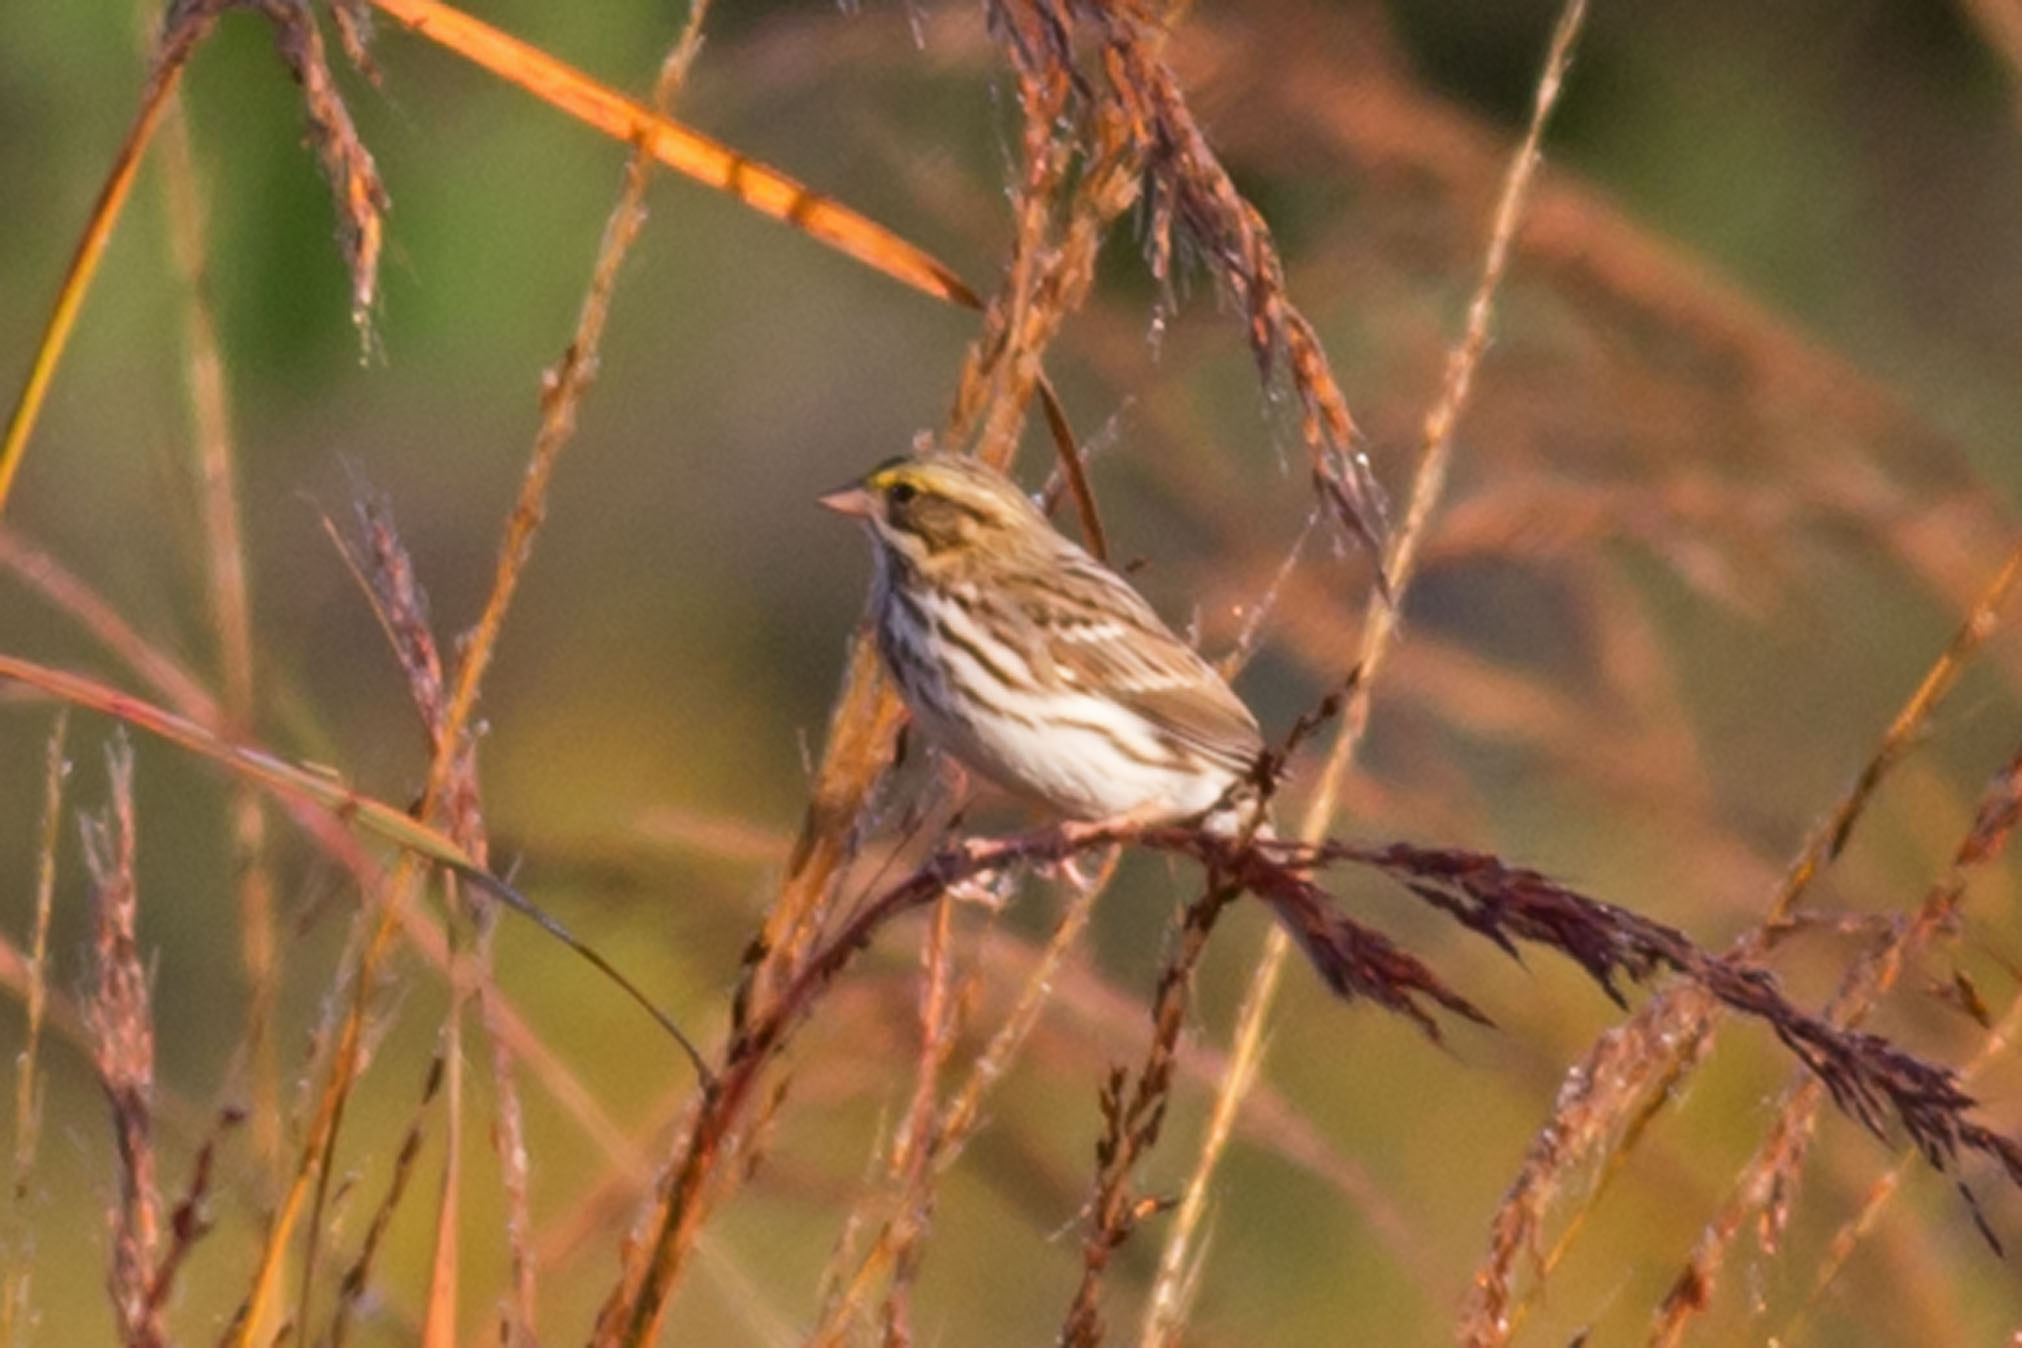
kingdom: Animalia
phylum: Chordata
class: Aves
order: Passeriformes
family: Passerellidae
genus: Passerculus
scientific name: Passerculus sandwichensis
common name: Savannah sparrow
